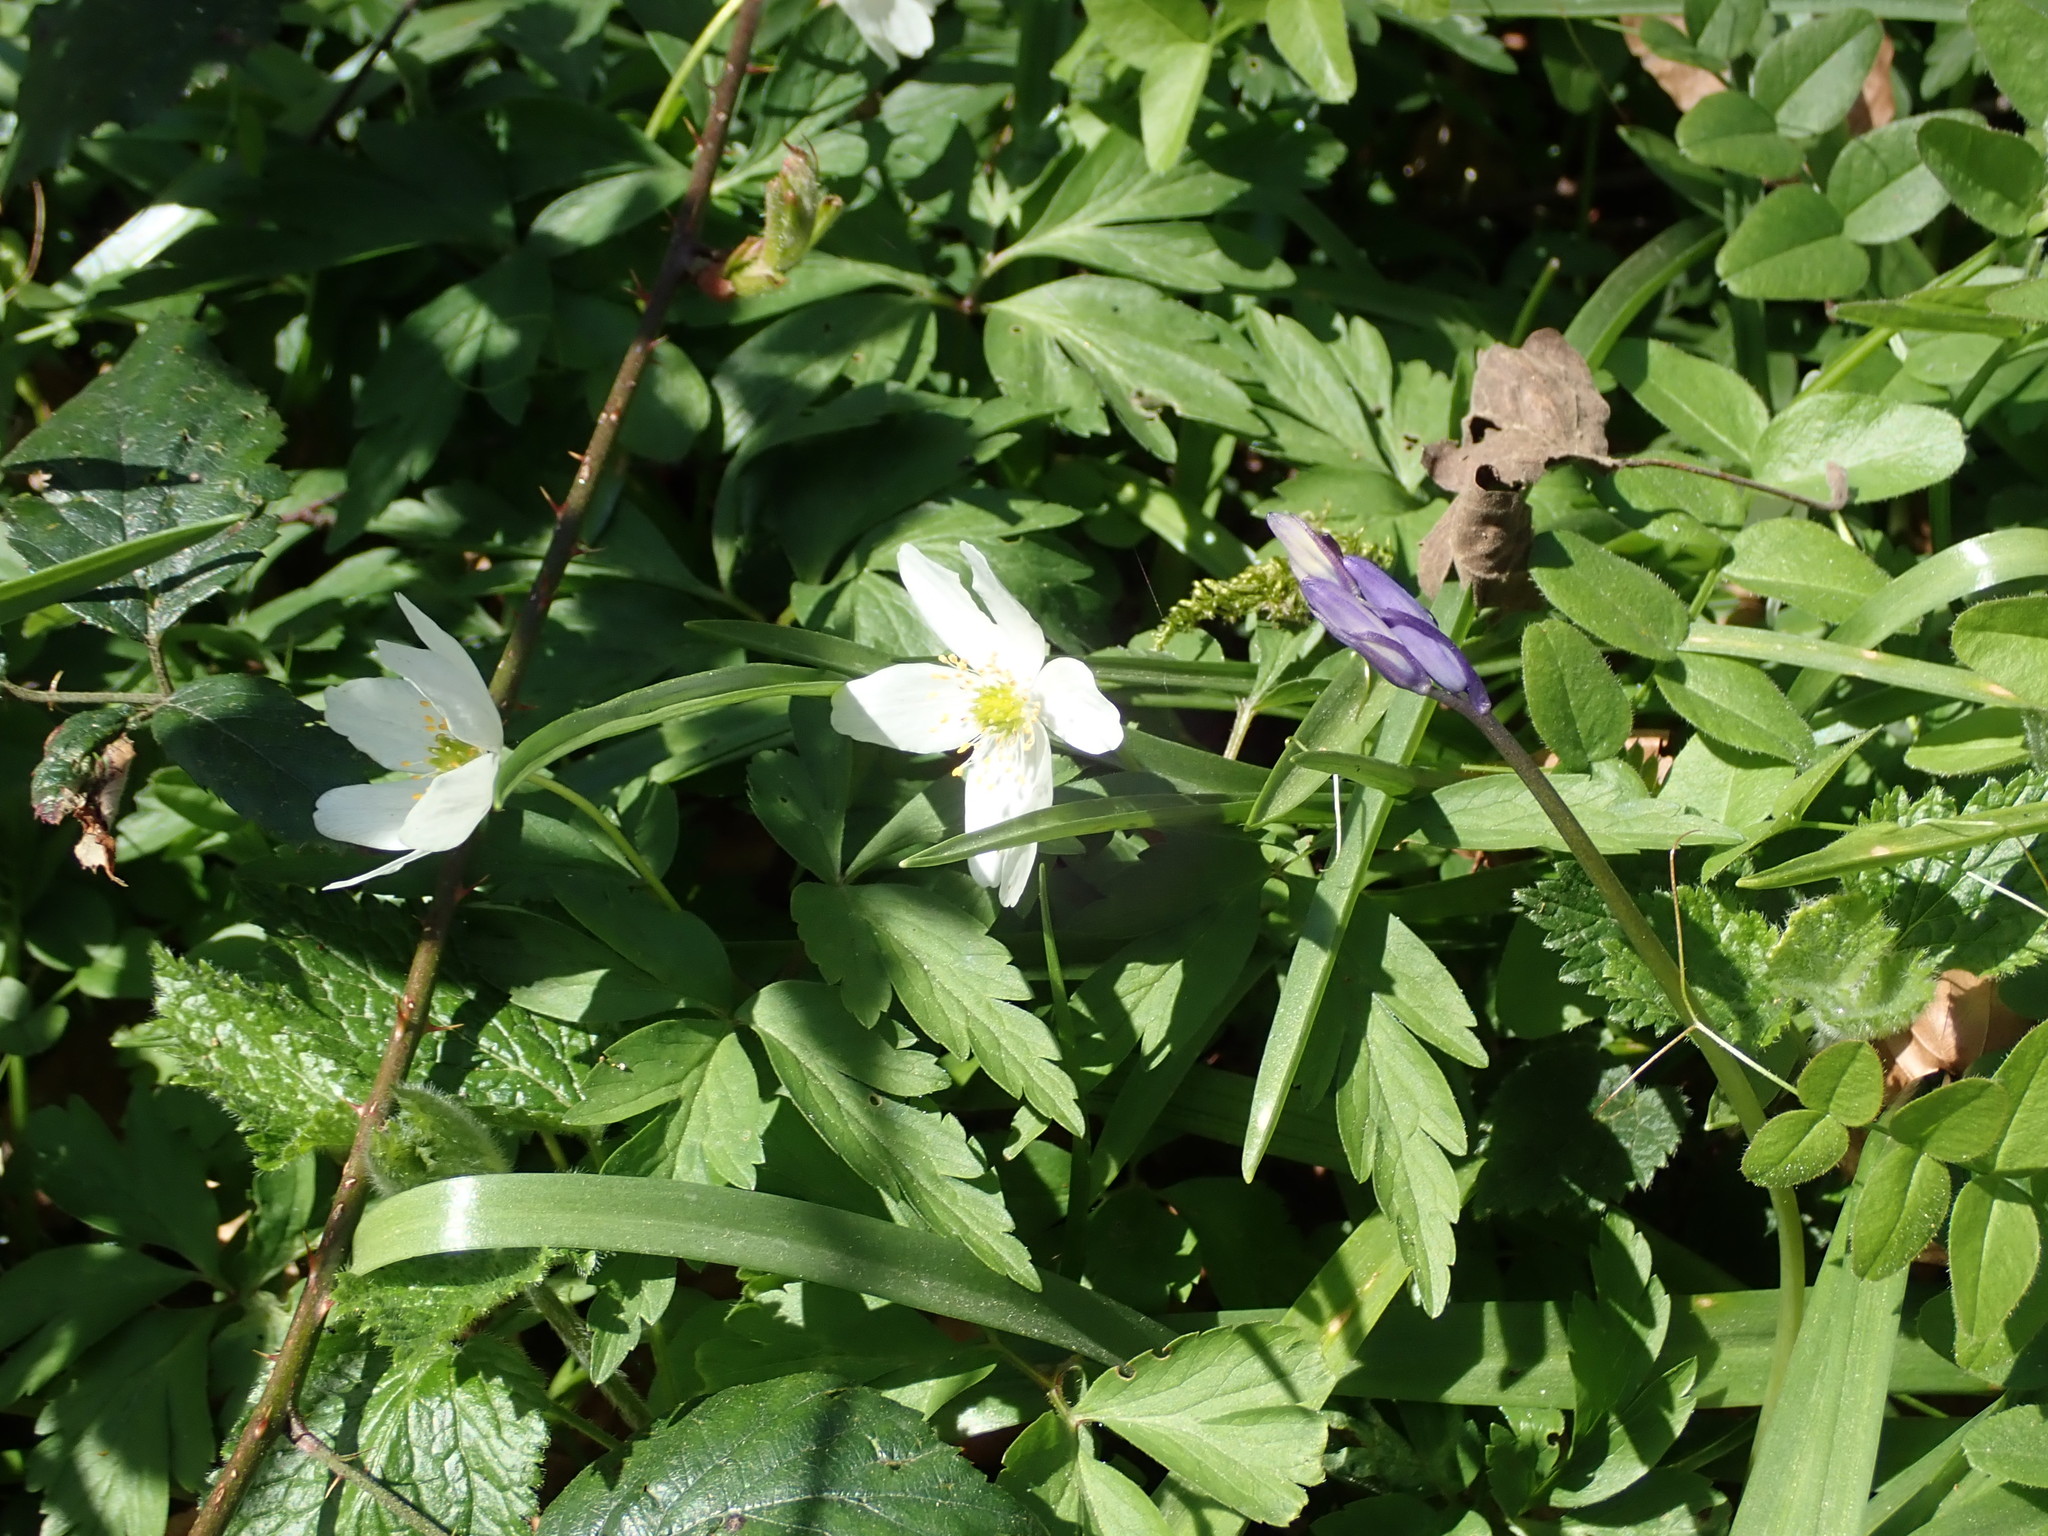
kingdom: Plantae
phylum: Tracheophyta
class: Magnoliopsida
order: Ranunculales
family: Ranunculaceae
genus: Anemone
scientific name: Anemone nemorosa
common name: Wood anemone
